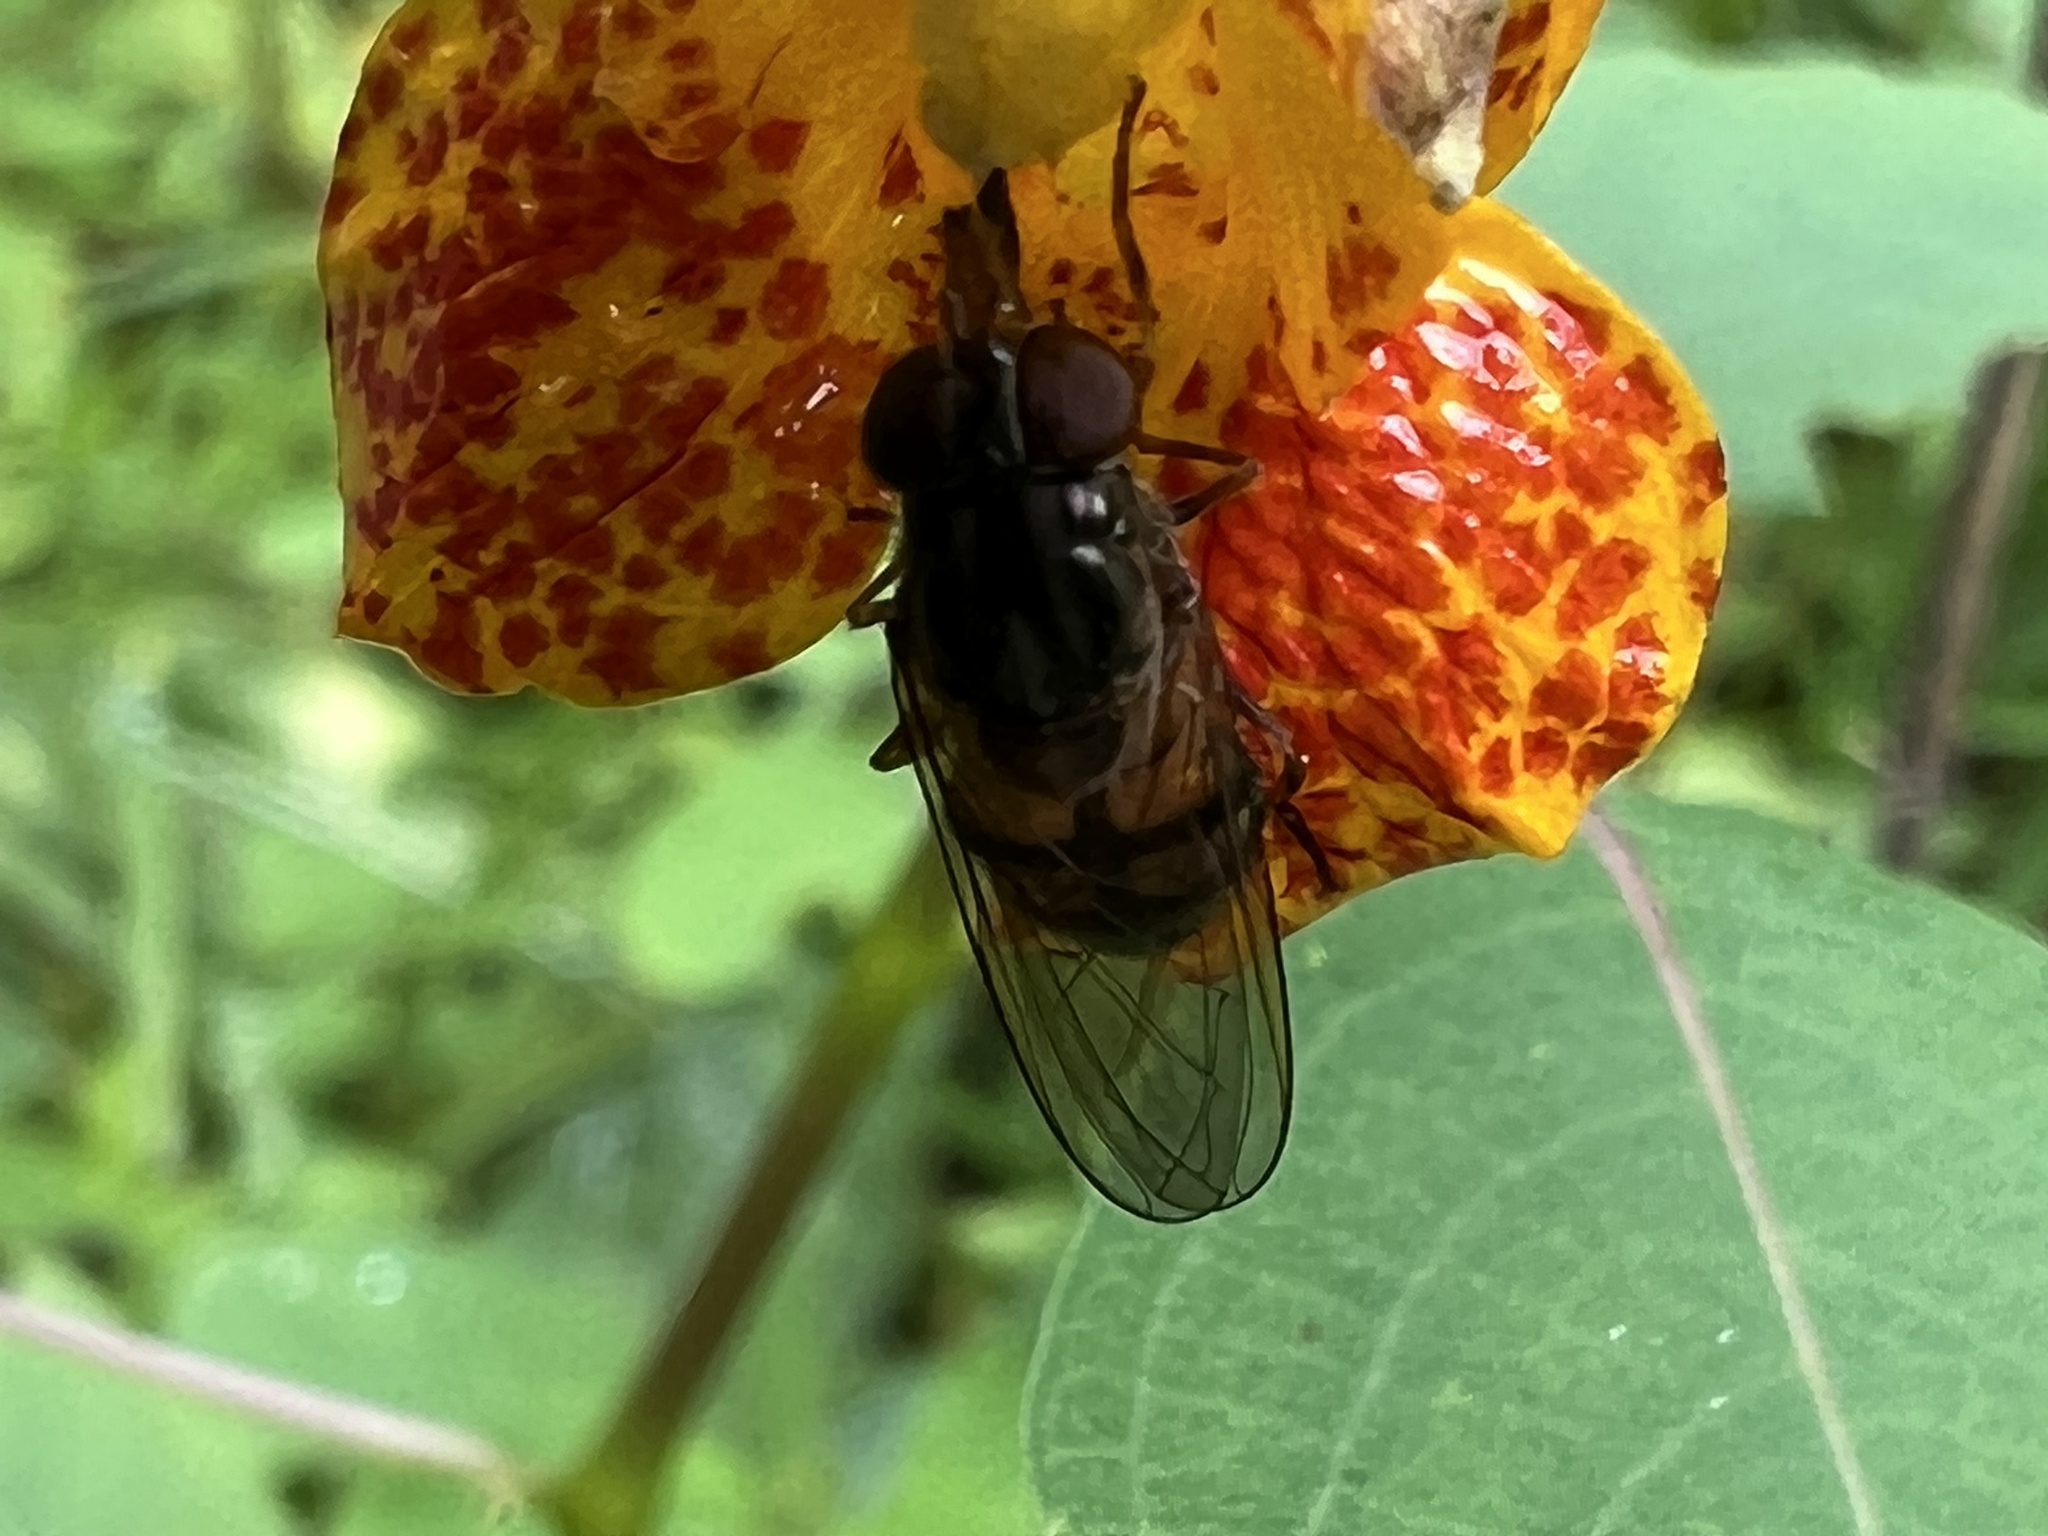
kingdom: Animalia
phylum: Arthropoda
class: Insecta
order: Diptera
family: Syrphidae
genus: Rhingia
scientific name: Rhingia nasica
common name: American snout fly
